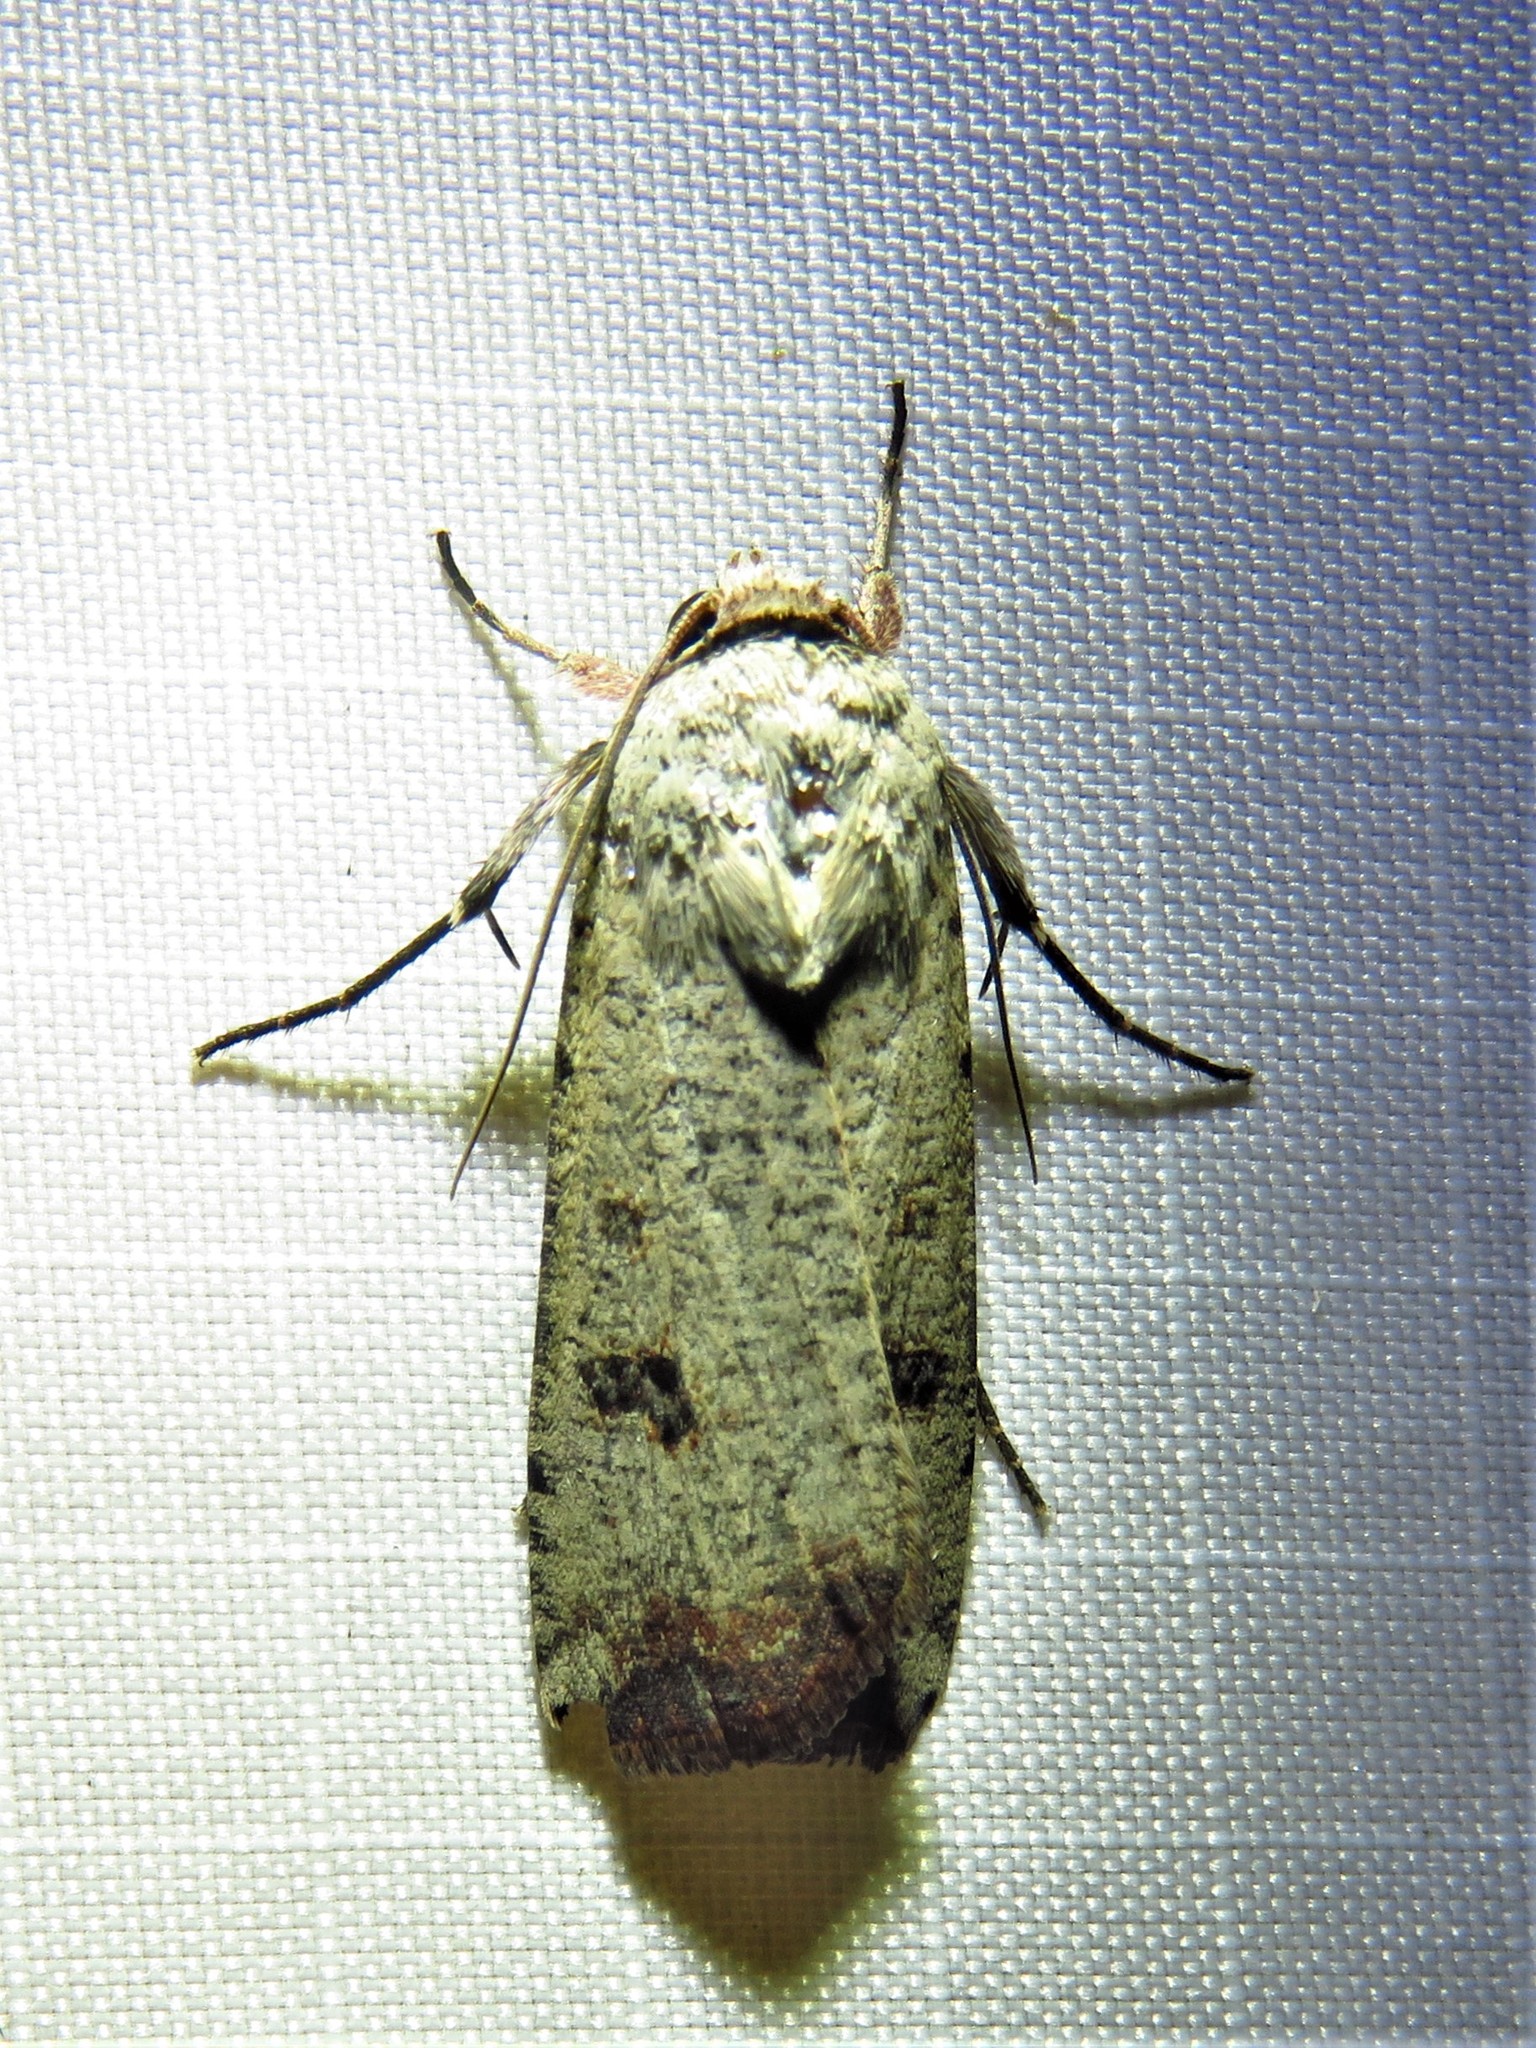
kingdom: Animalia
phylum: Arthropoda
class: Insecta
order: Lepidoptera
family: Noctuidae
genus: Anicla
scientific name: Anicla infecta
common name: Green cutworm
